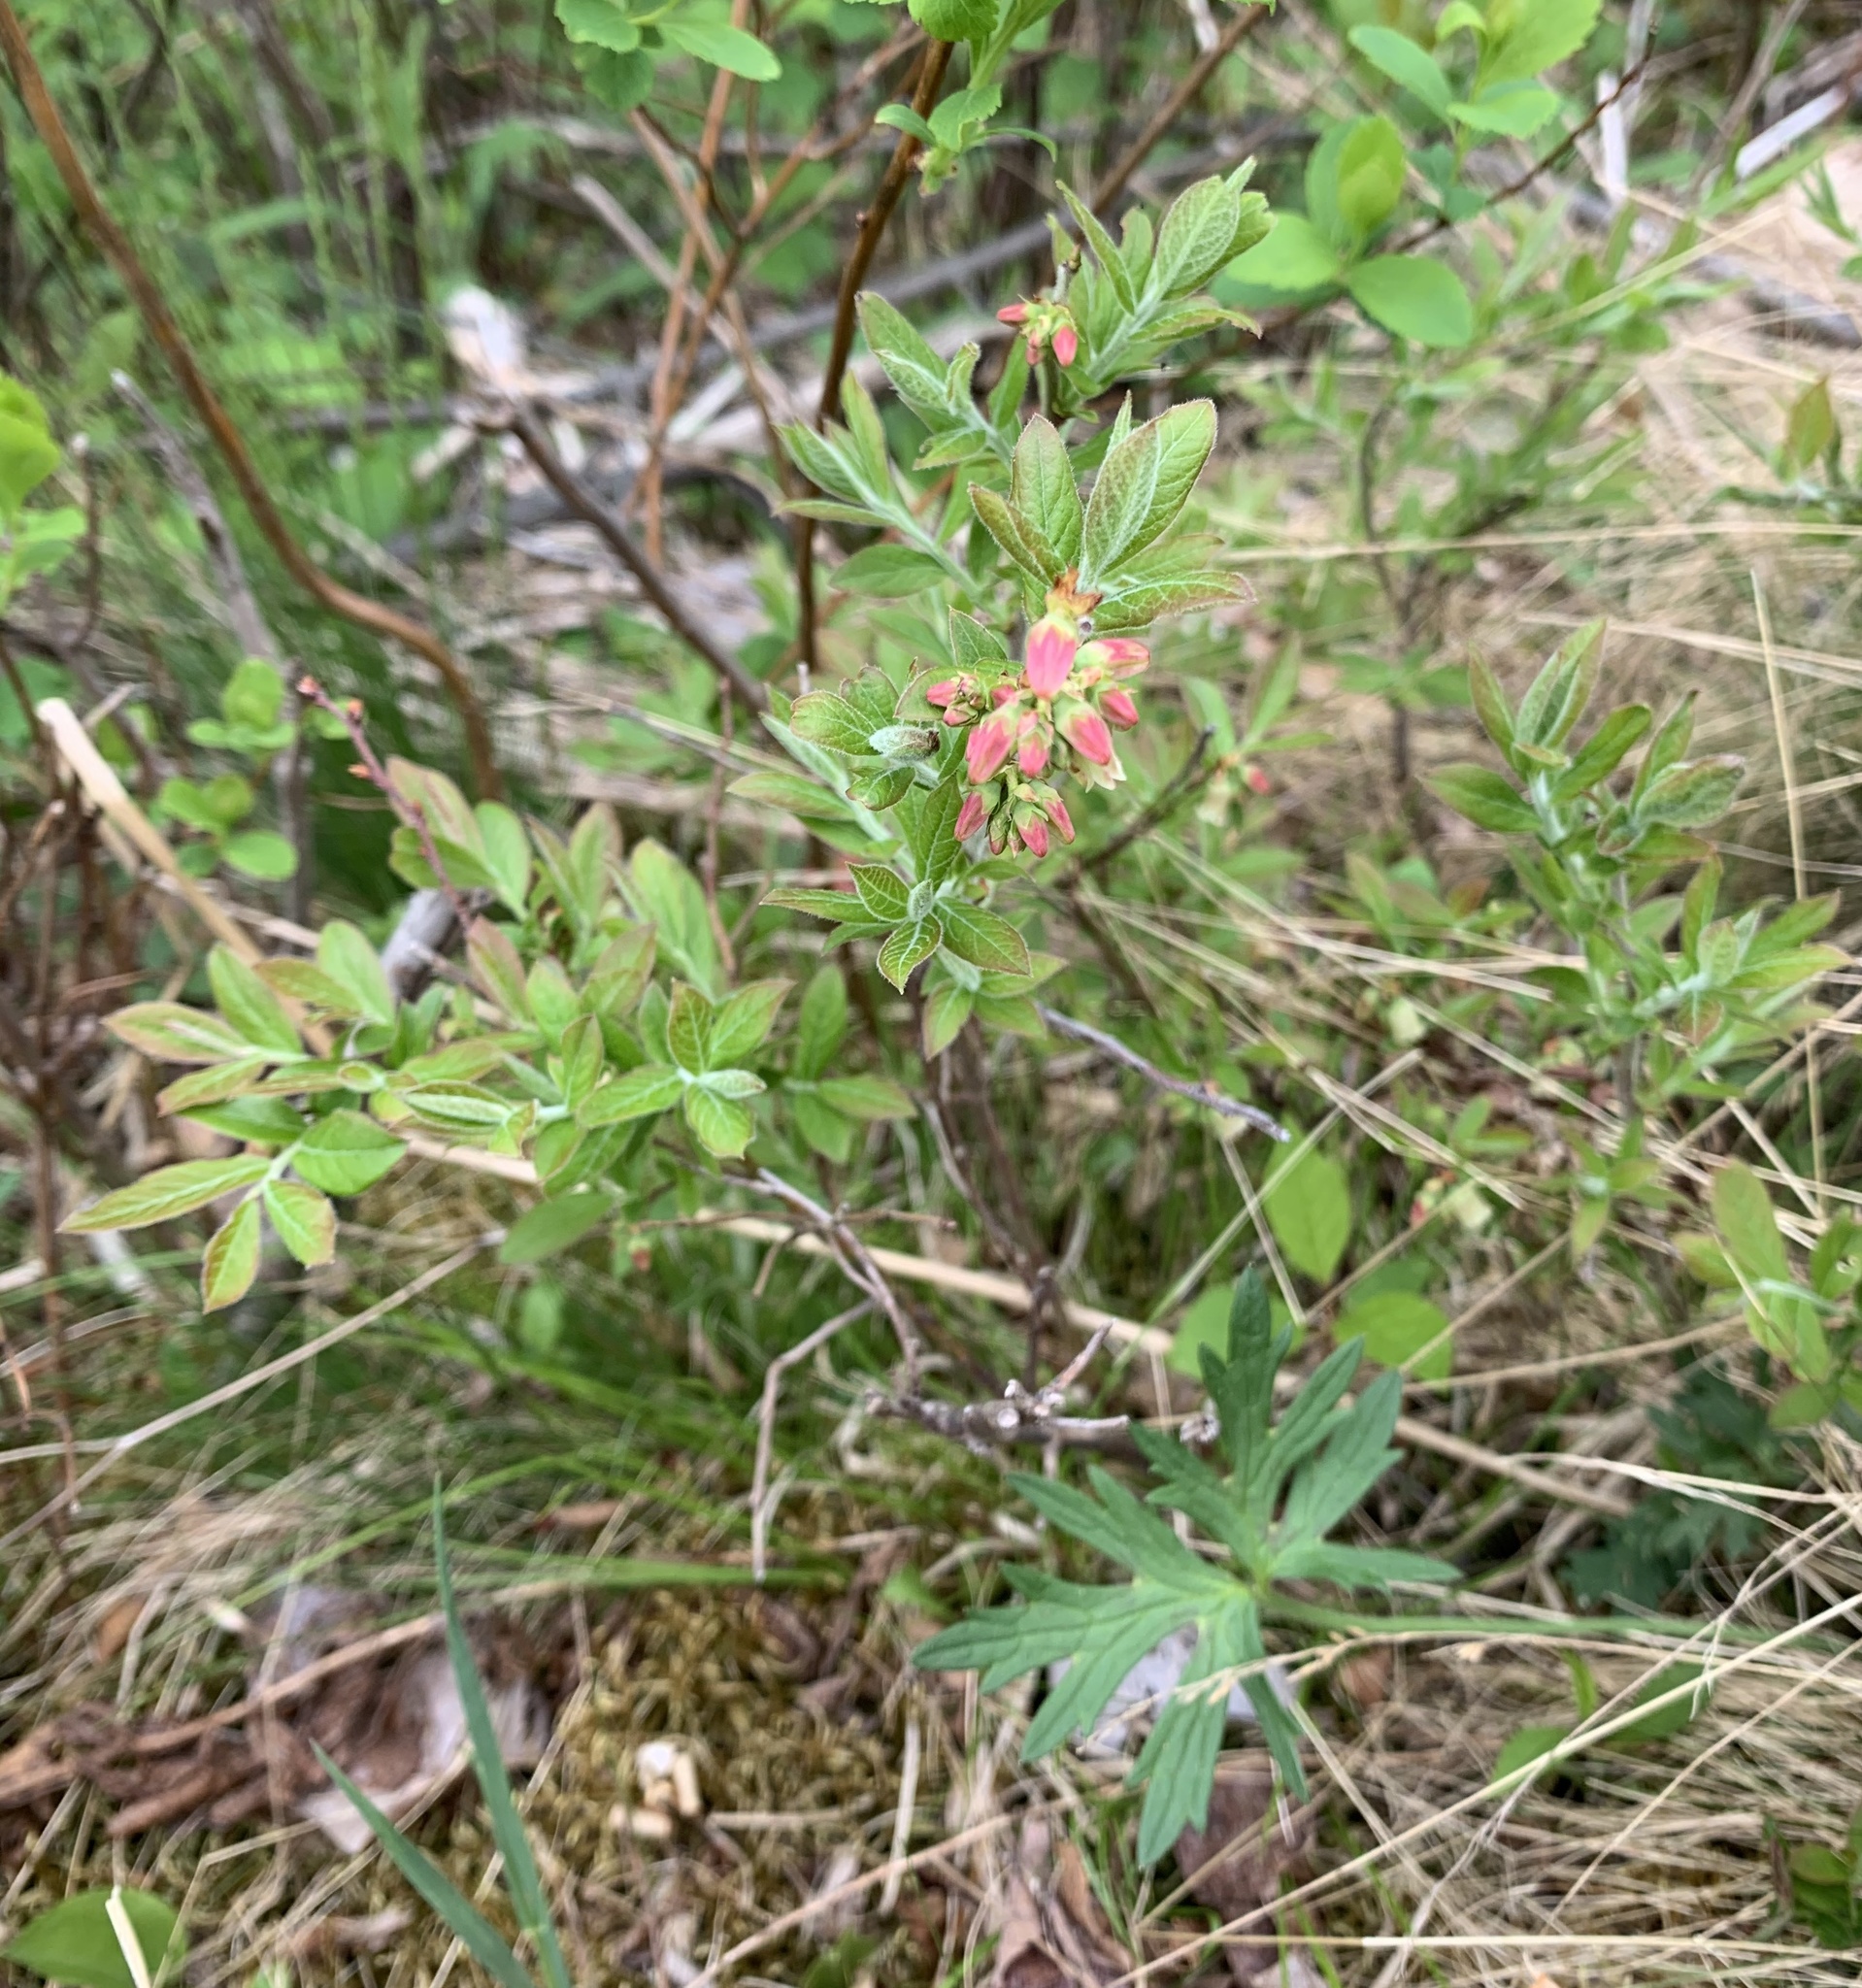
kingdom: Plantae
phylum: Tracheophyta
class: Magnoliopsida
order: Ericales
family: Ericaceae
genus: Vaccinium
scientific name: Vaccinium myrtilloides
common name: Canada blueberry
